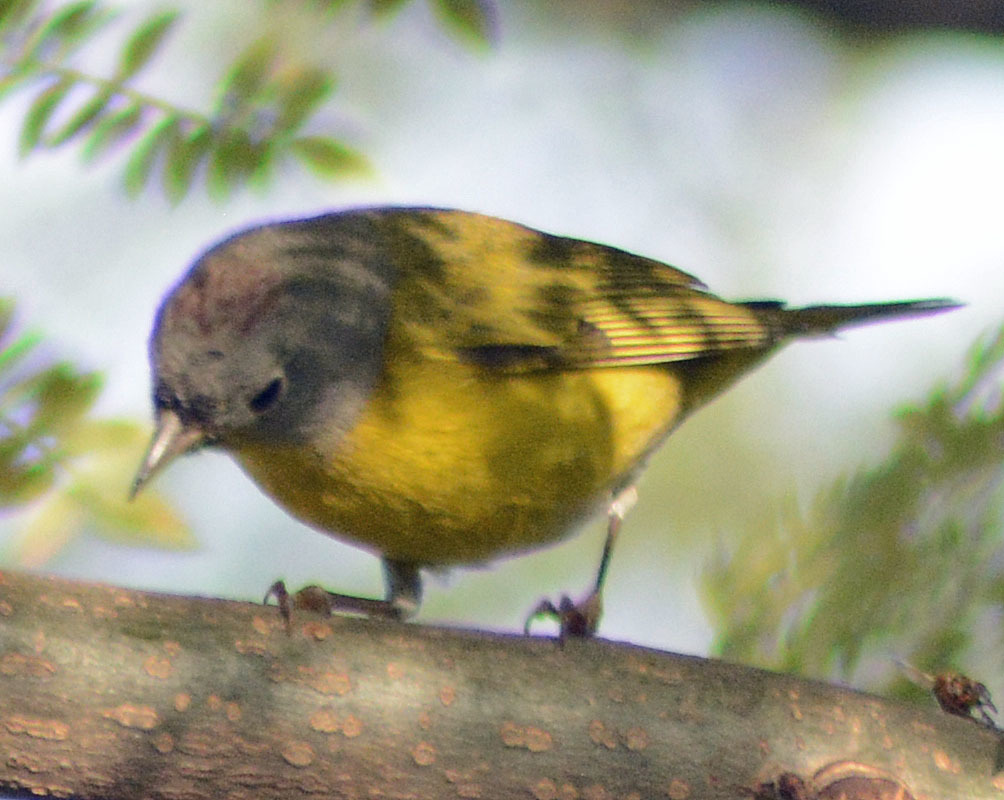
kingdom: Animalia
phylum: Chordata
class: Aves
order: Passeriformes
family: Parulidae
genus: Leiothlypis
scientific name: Leiothlypis ruficapilla
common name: Nashville warbler
